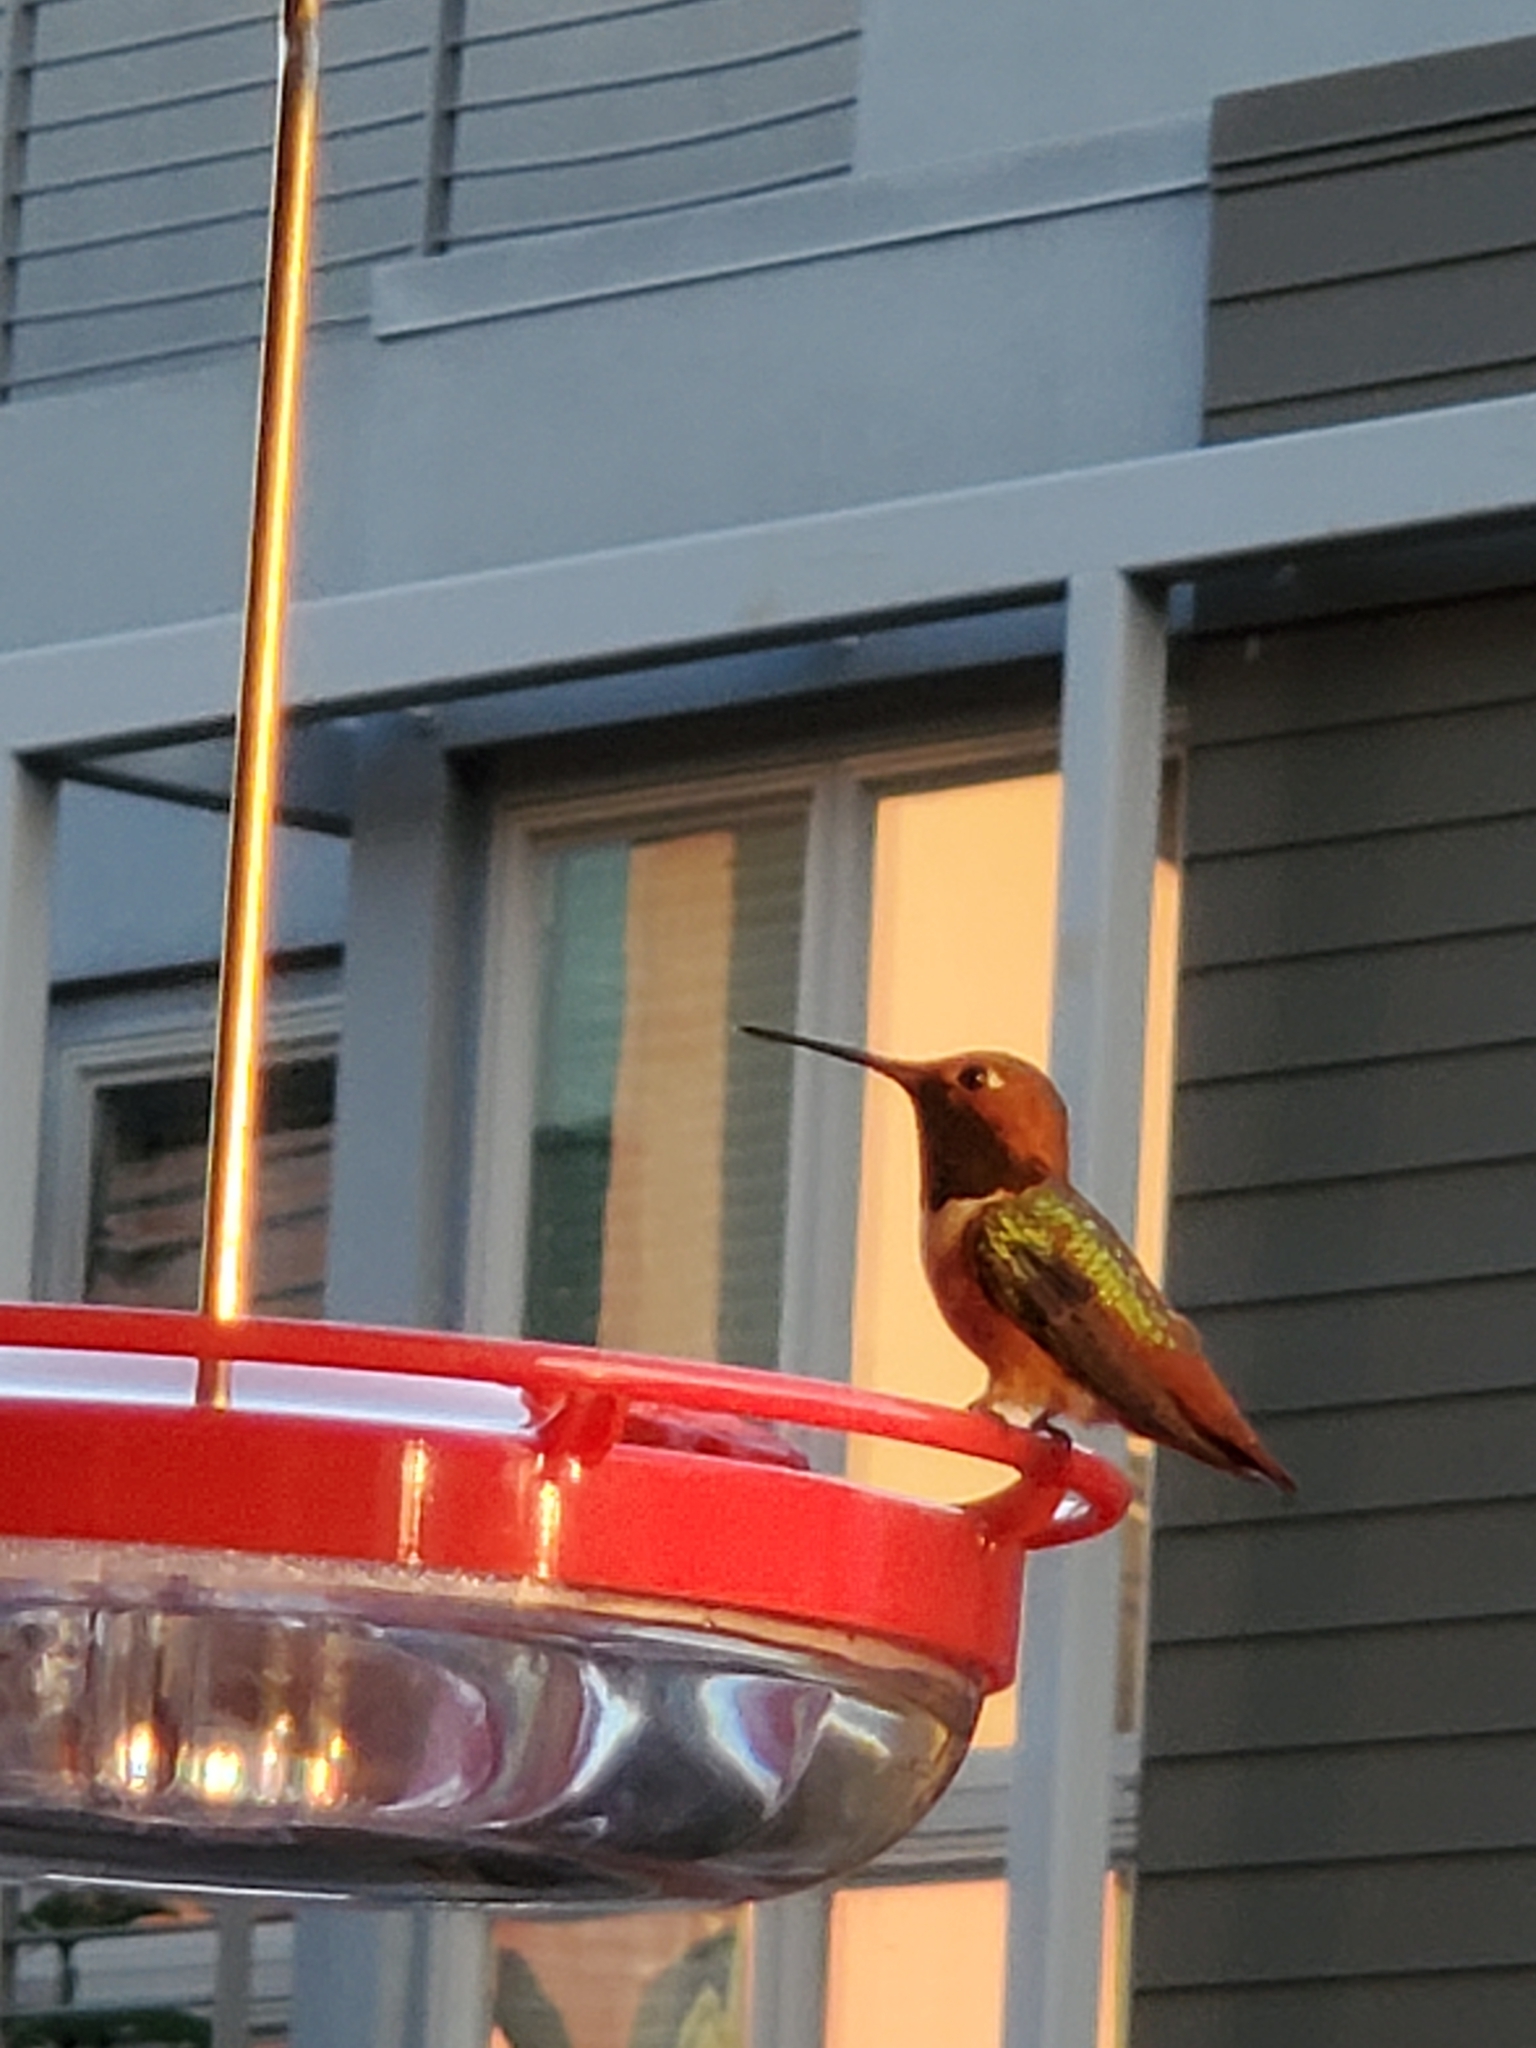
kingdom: Animalia
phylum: Chordata
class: Aves
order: Apodiformes
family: Trochilidae
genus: Selasphorus
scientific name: Selasphorus sasin
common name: Allen's hummingbird
